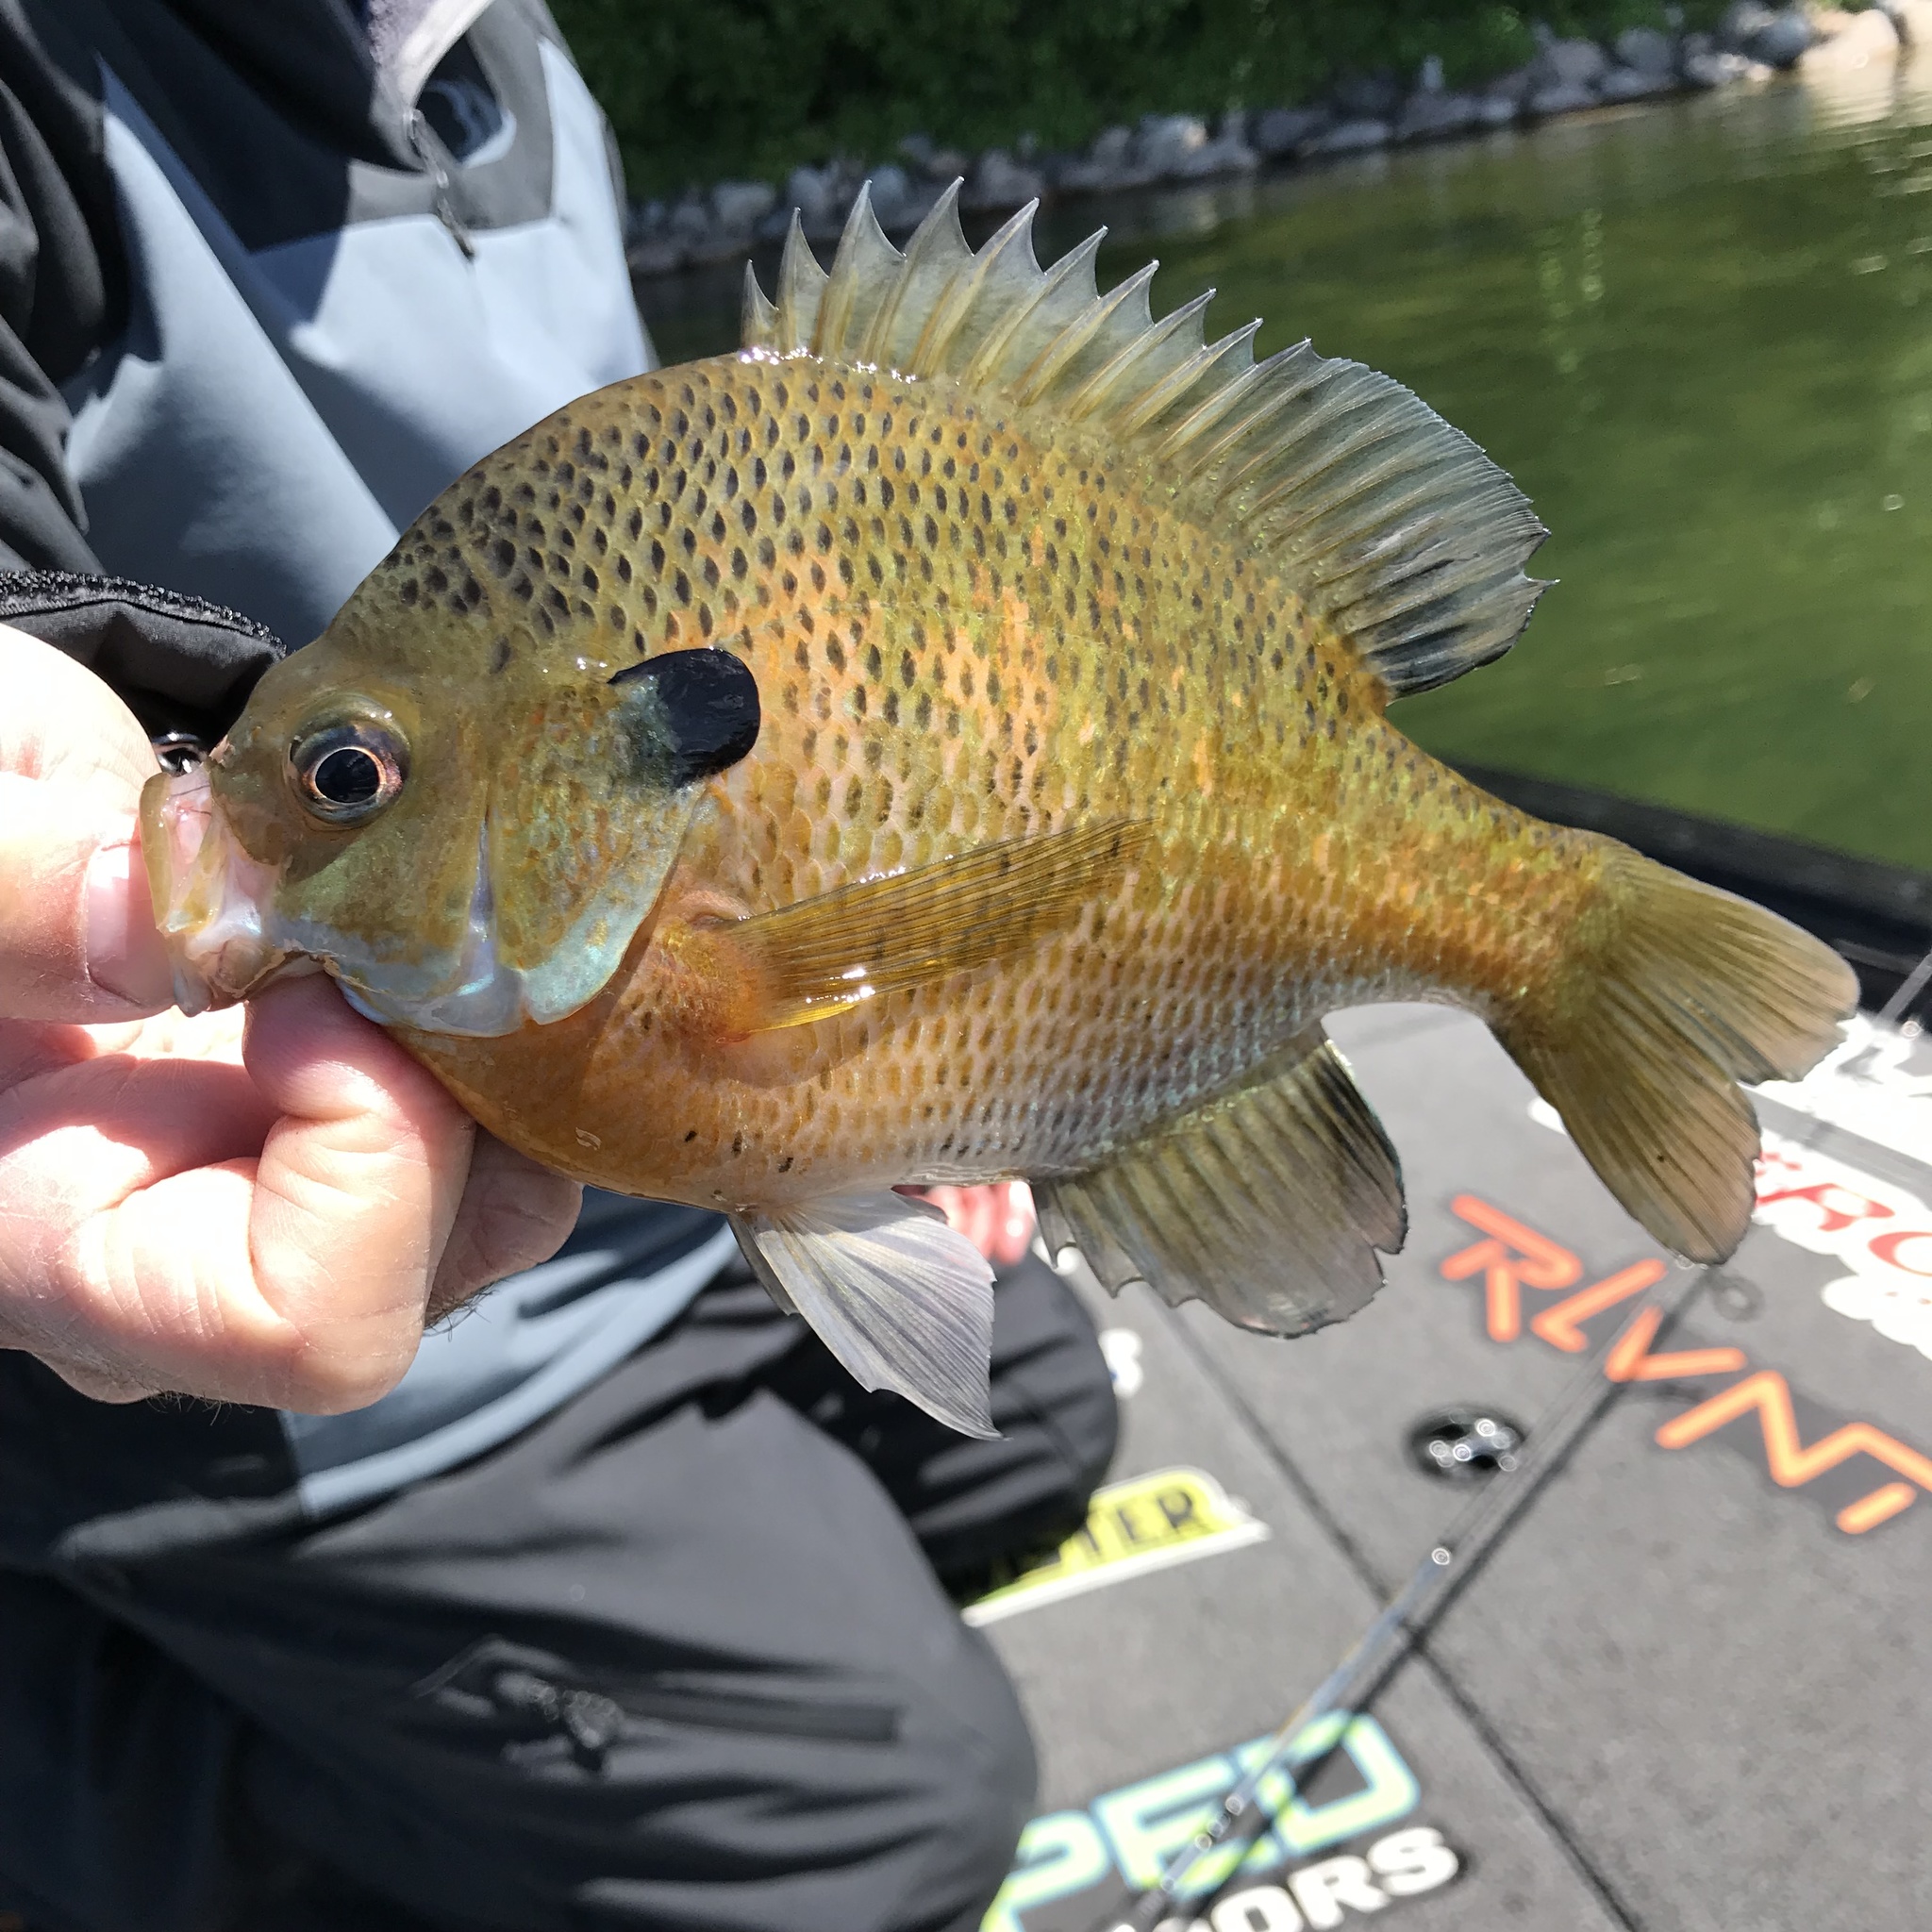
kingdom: Animalia
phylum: Chordata
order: Perciformes
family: Centrarchidae
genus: Lepomis
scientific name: Lepomis macrochirus
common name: Bluegill
